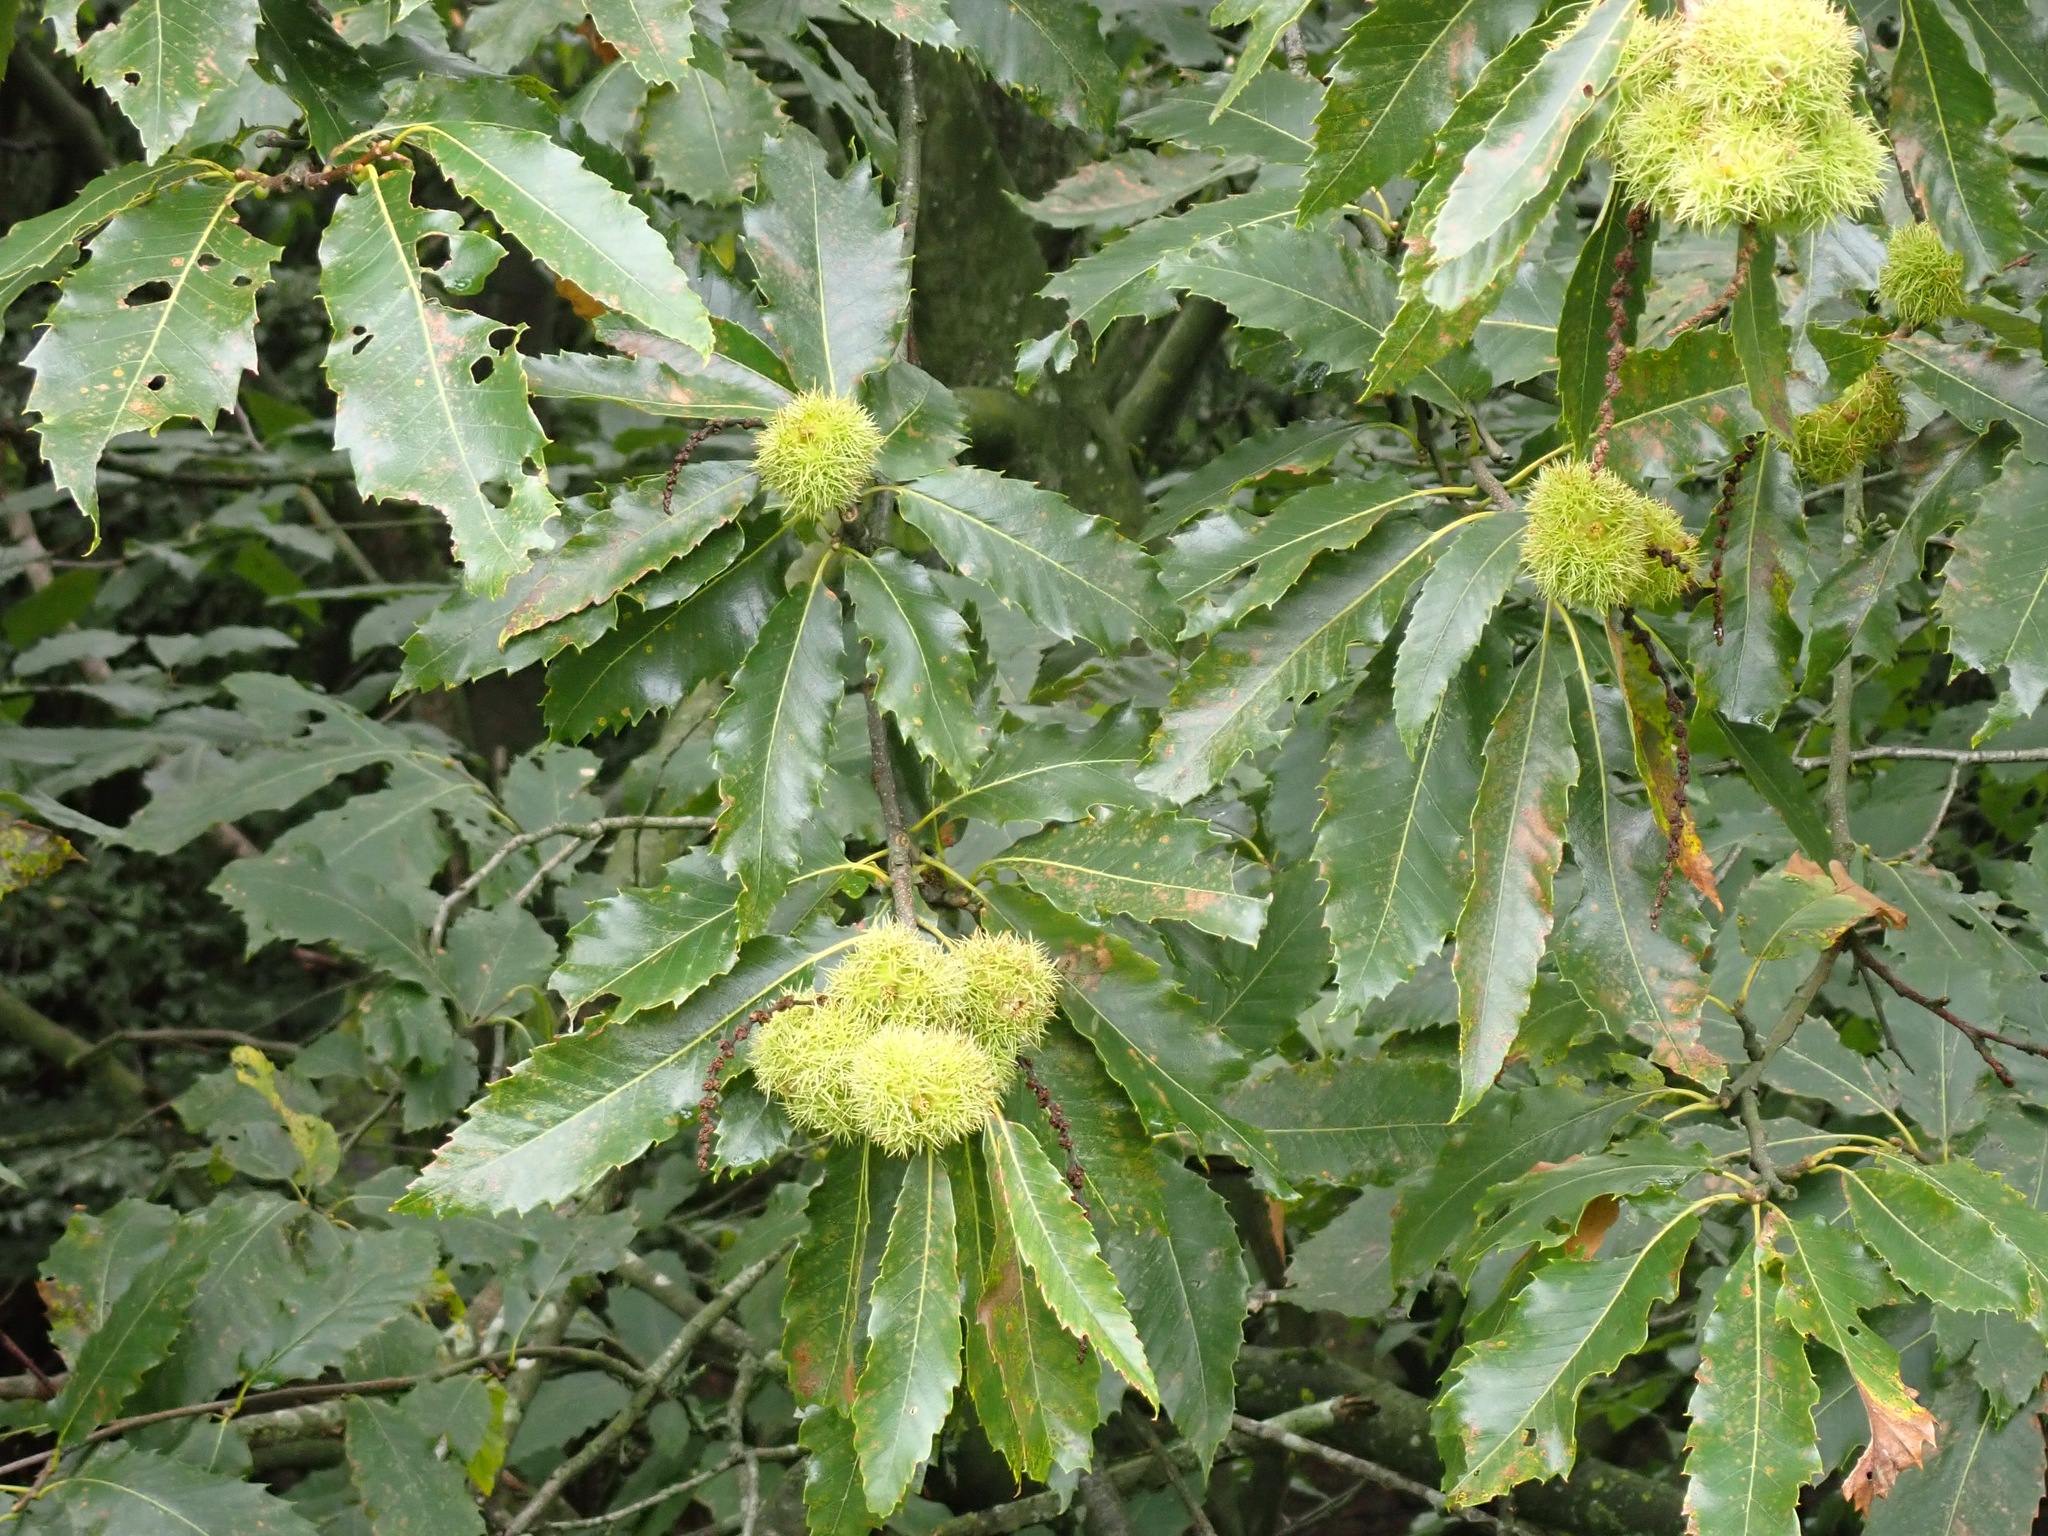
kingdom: Plantae
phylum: Tracheophyta
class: Magnoliopsida
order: Fagales
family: Fagaceae
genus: Castanea
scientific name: Castanea sativa
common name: Sweet chestnut
